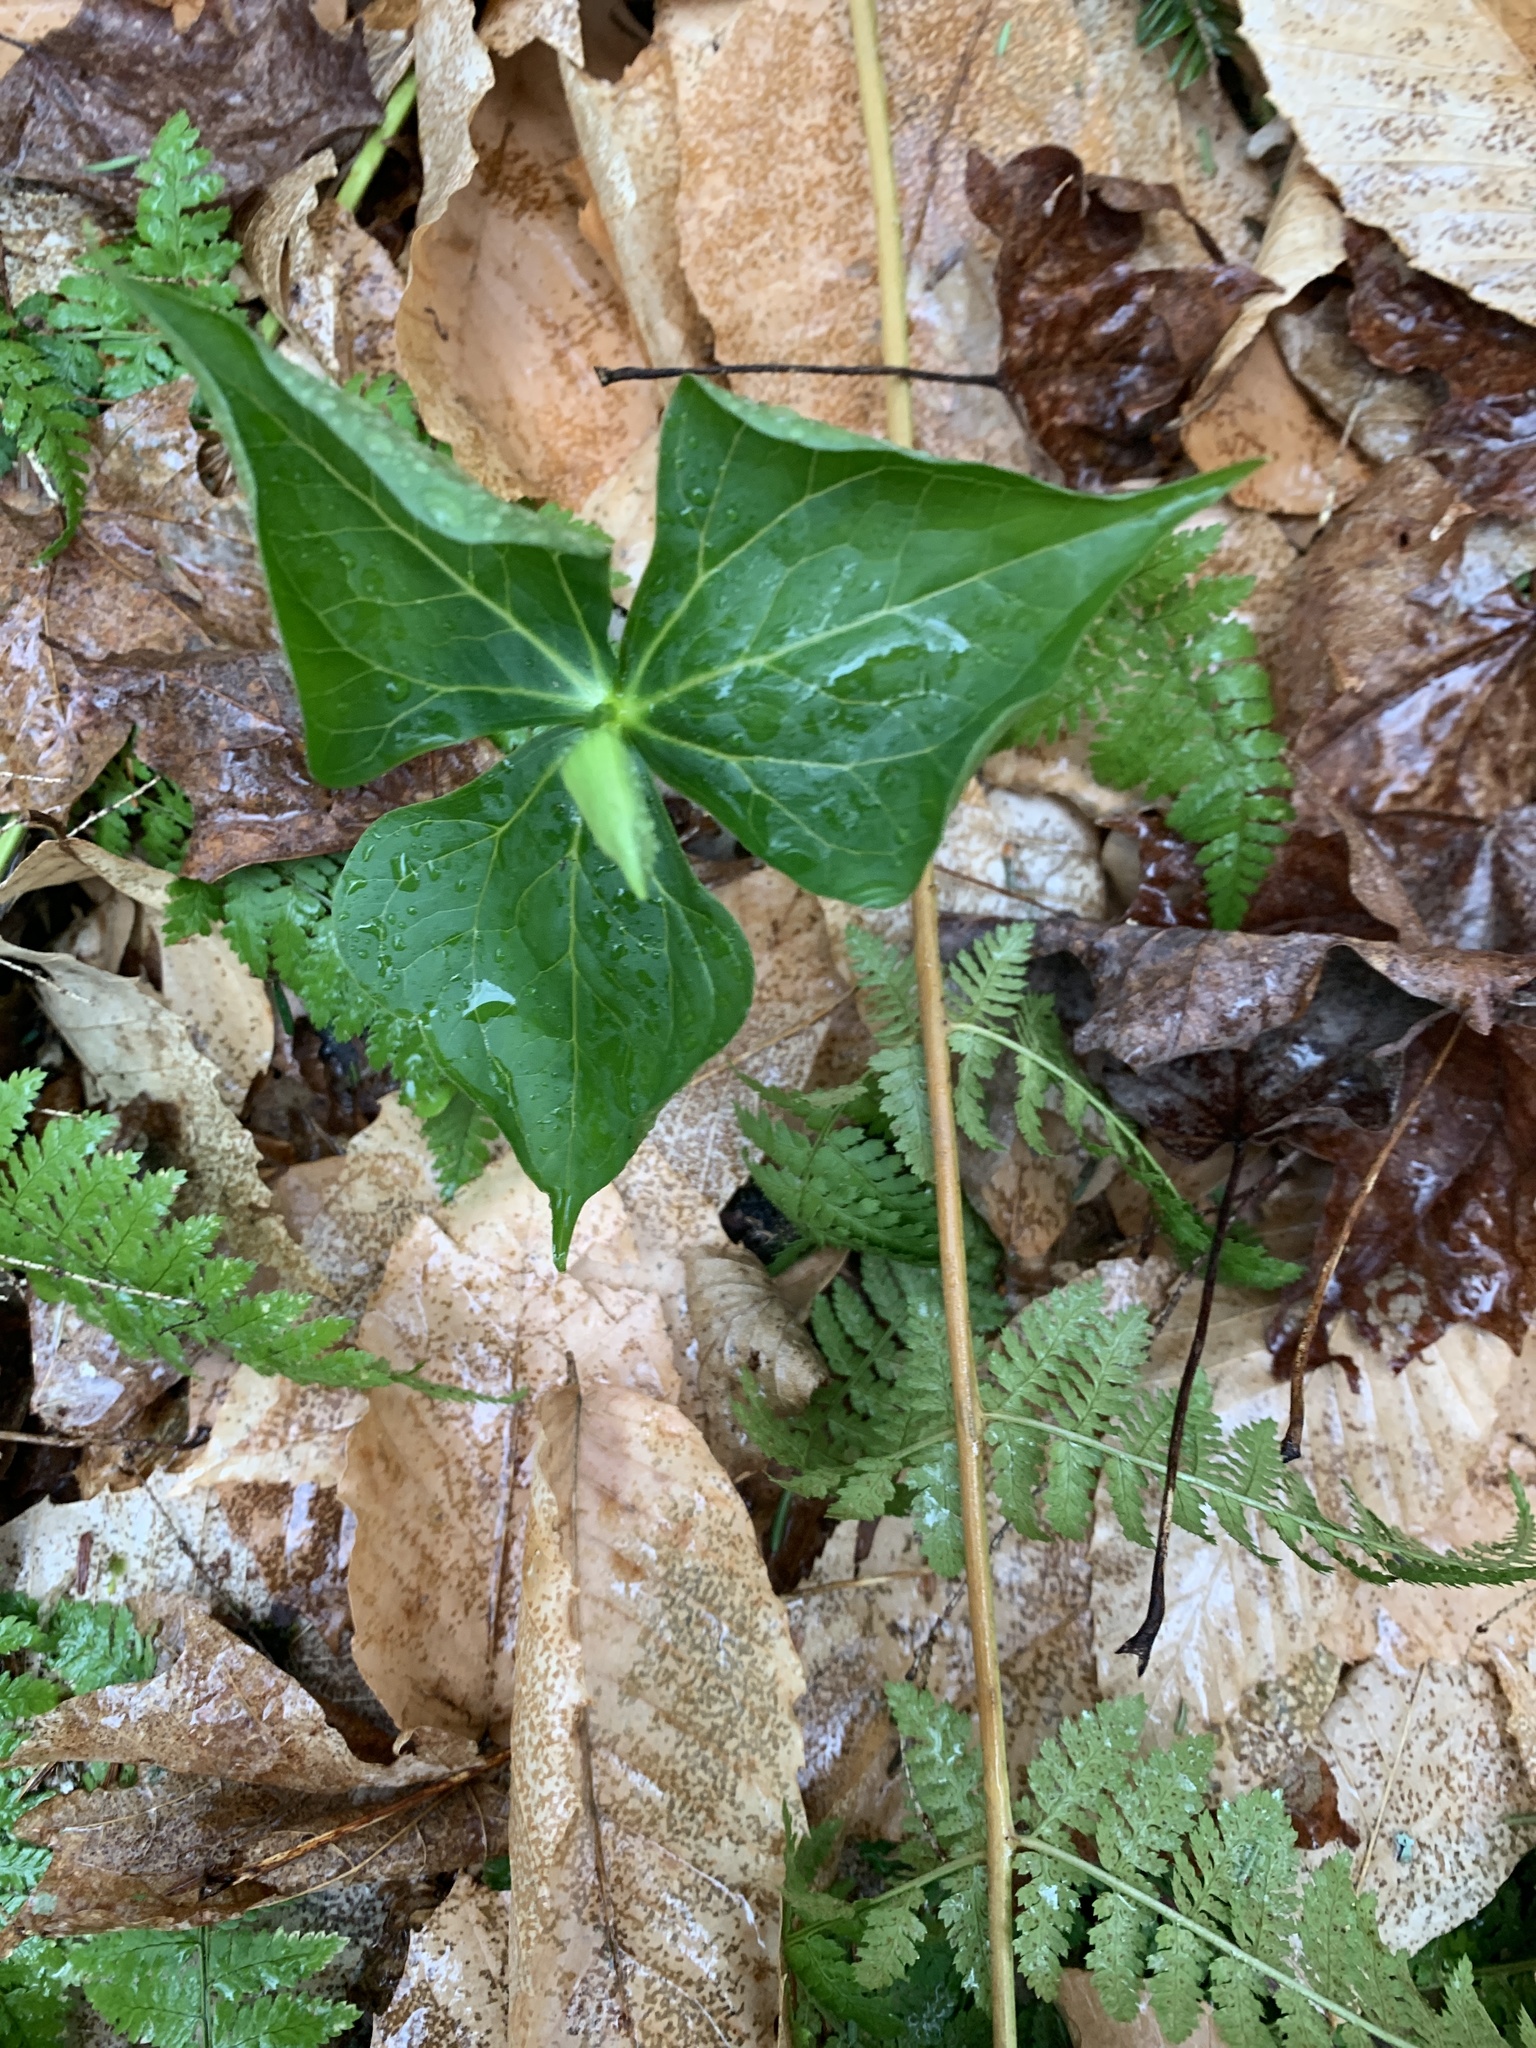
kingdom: Plantae
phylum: Tracheophyta
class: Liliopsida
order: Liliales
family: Melanthiaceae
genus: Trillium
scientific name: Trillium erectum
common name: Purple trillium
